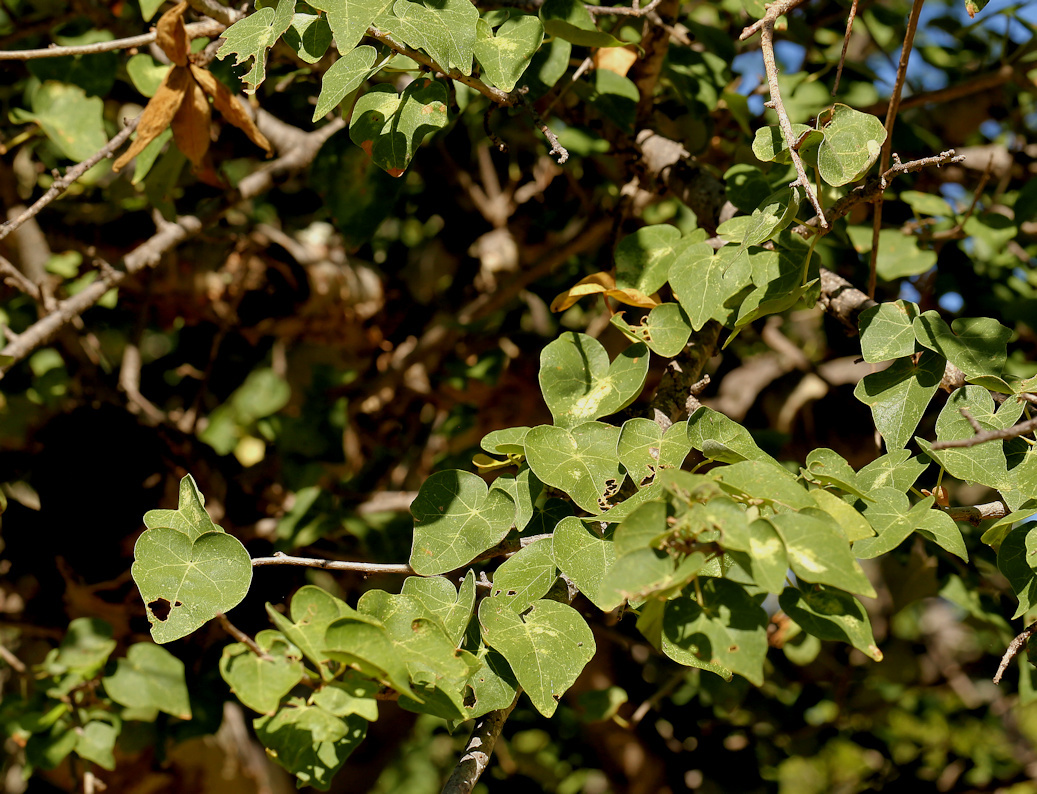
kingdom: Plantae
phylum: Tracheophyta
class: Magnoliopsida
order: Malvales
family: Malvaceae
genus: Sterculia
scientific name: Sterculia rogersii
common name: Star-chestnut
